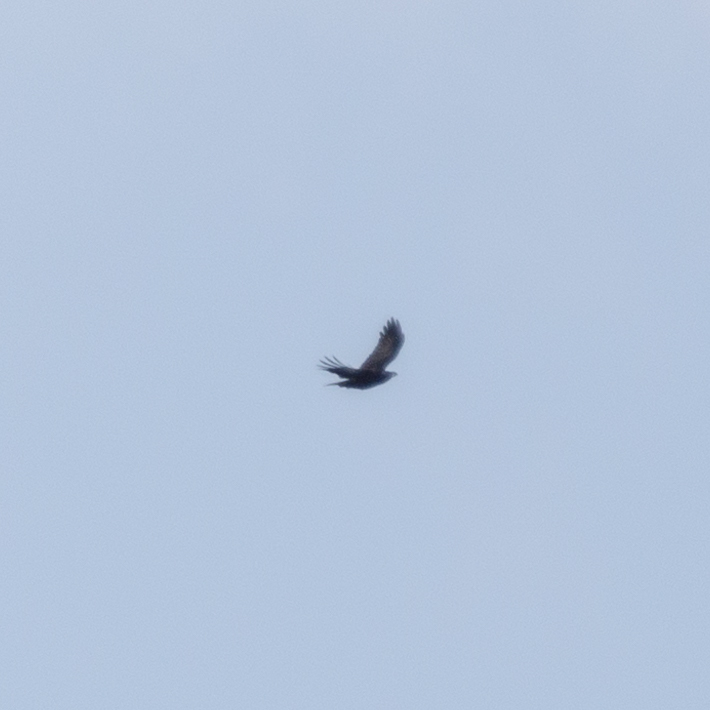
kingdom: Animalia
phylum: Chordata
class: Aves
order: Passeriformes
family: Corvidae
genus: Corvus
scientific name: Corvus corax
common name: Common raven
